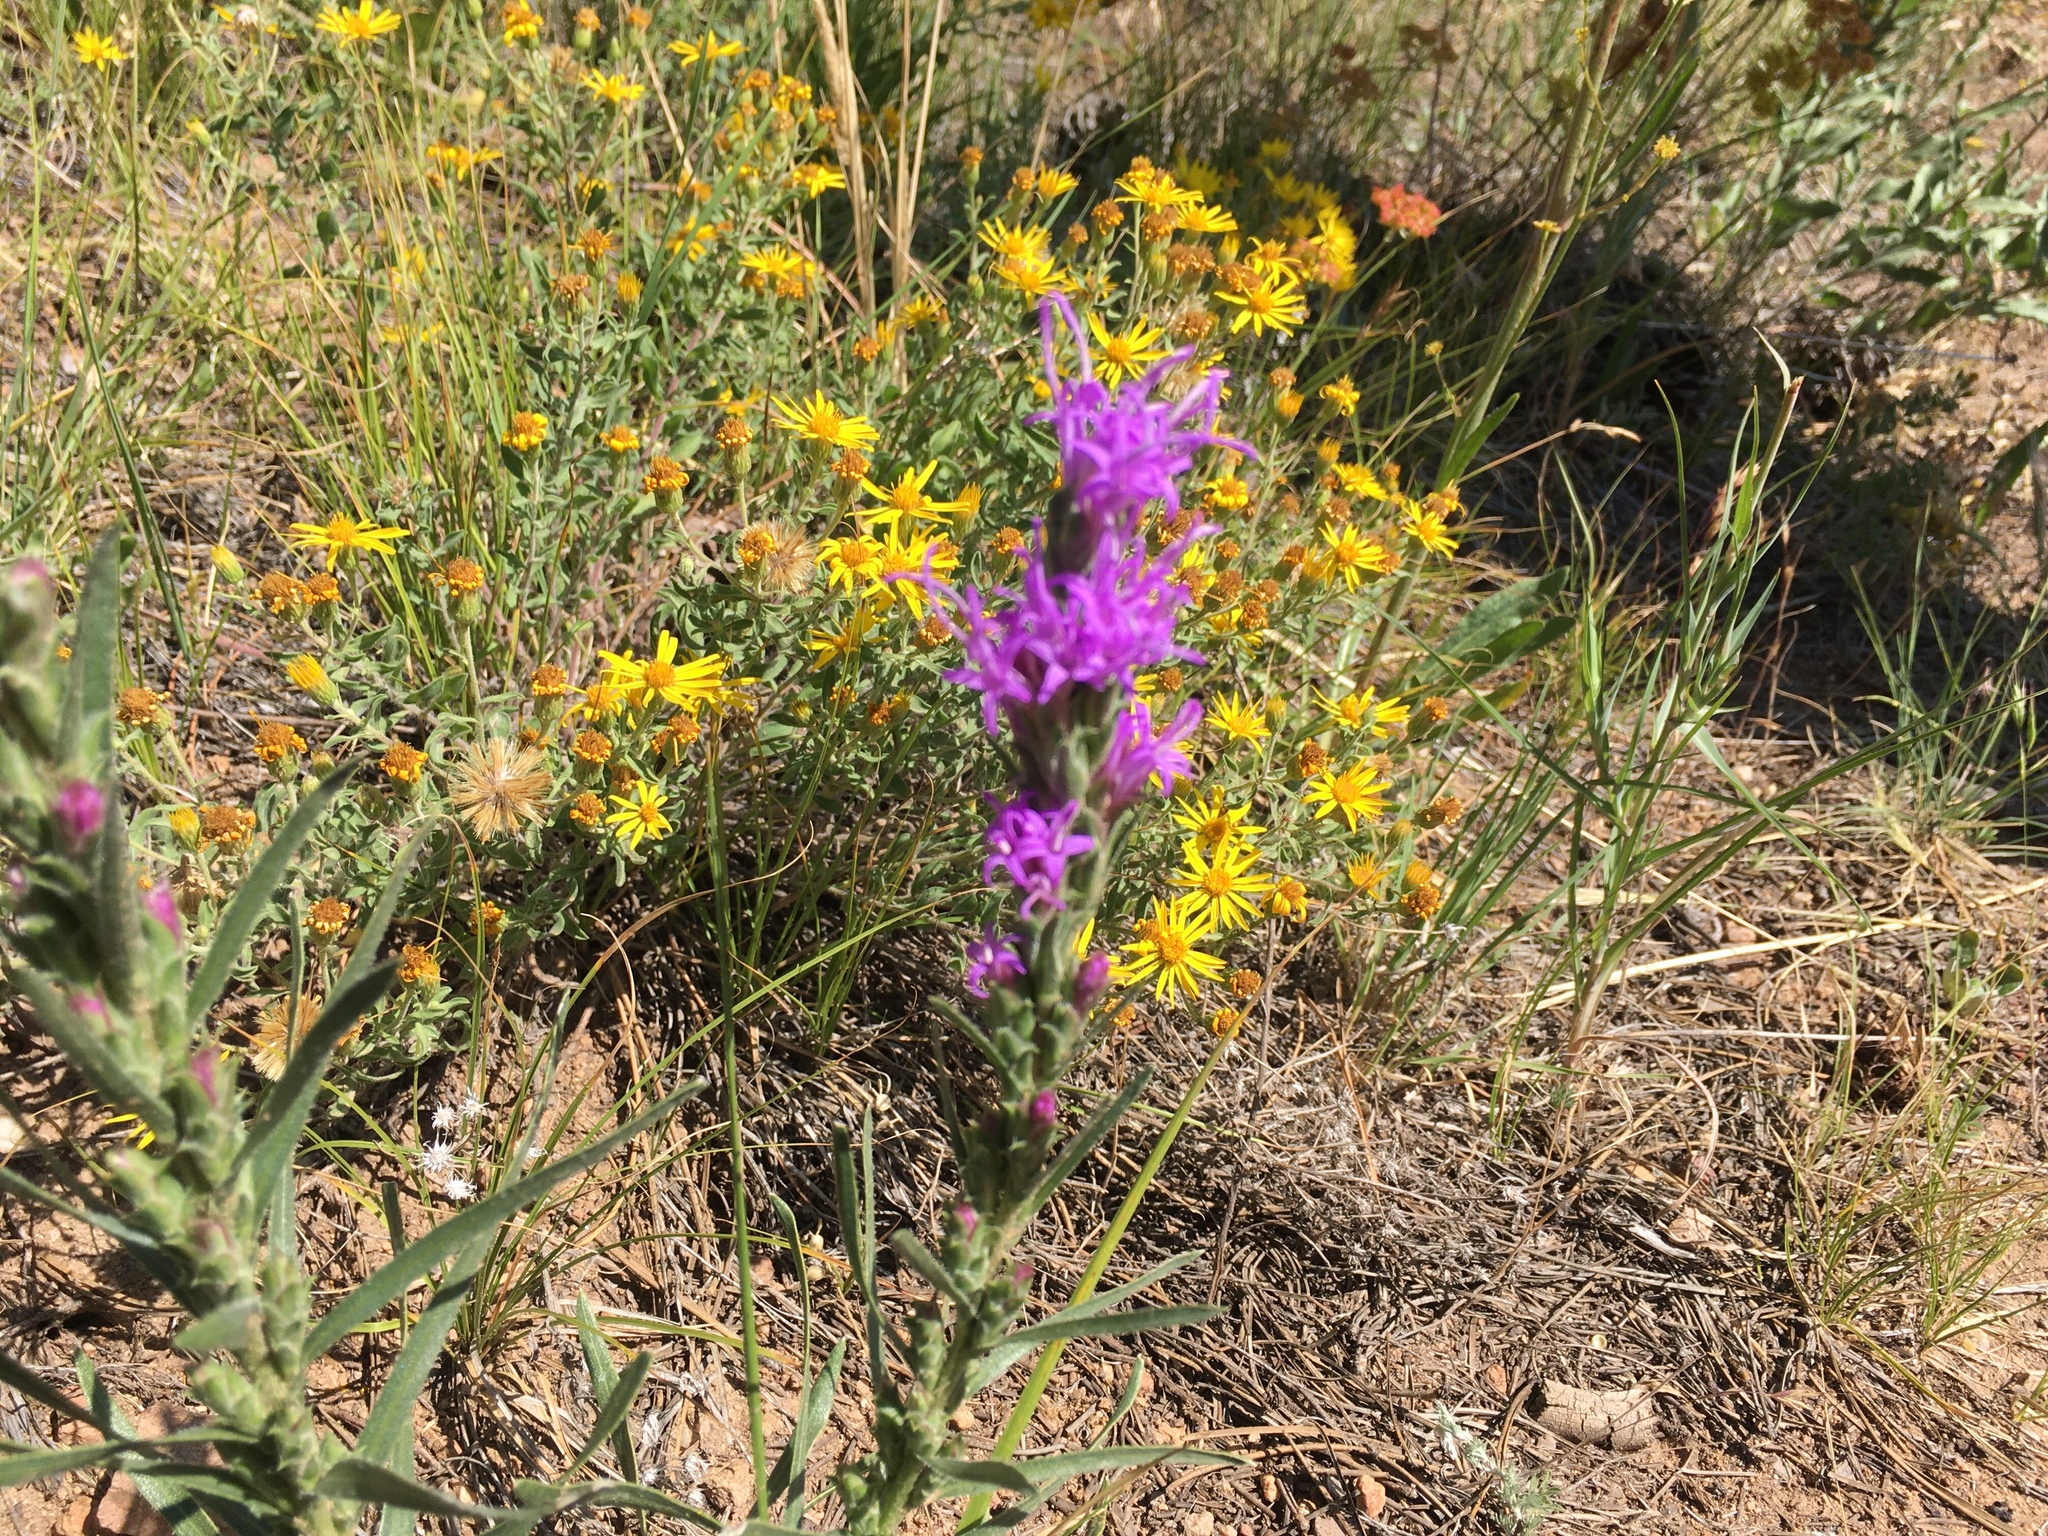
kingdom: Plantae
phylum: Tracheophyta
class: Magnoliopsida
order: Asterales
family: Asteraceae
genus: Liatris
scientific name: Liatris punctata
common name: Dotted gayfeather
